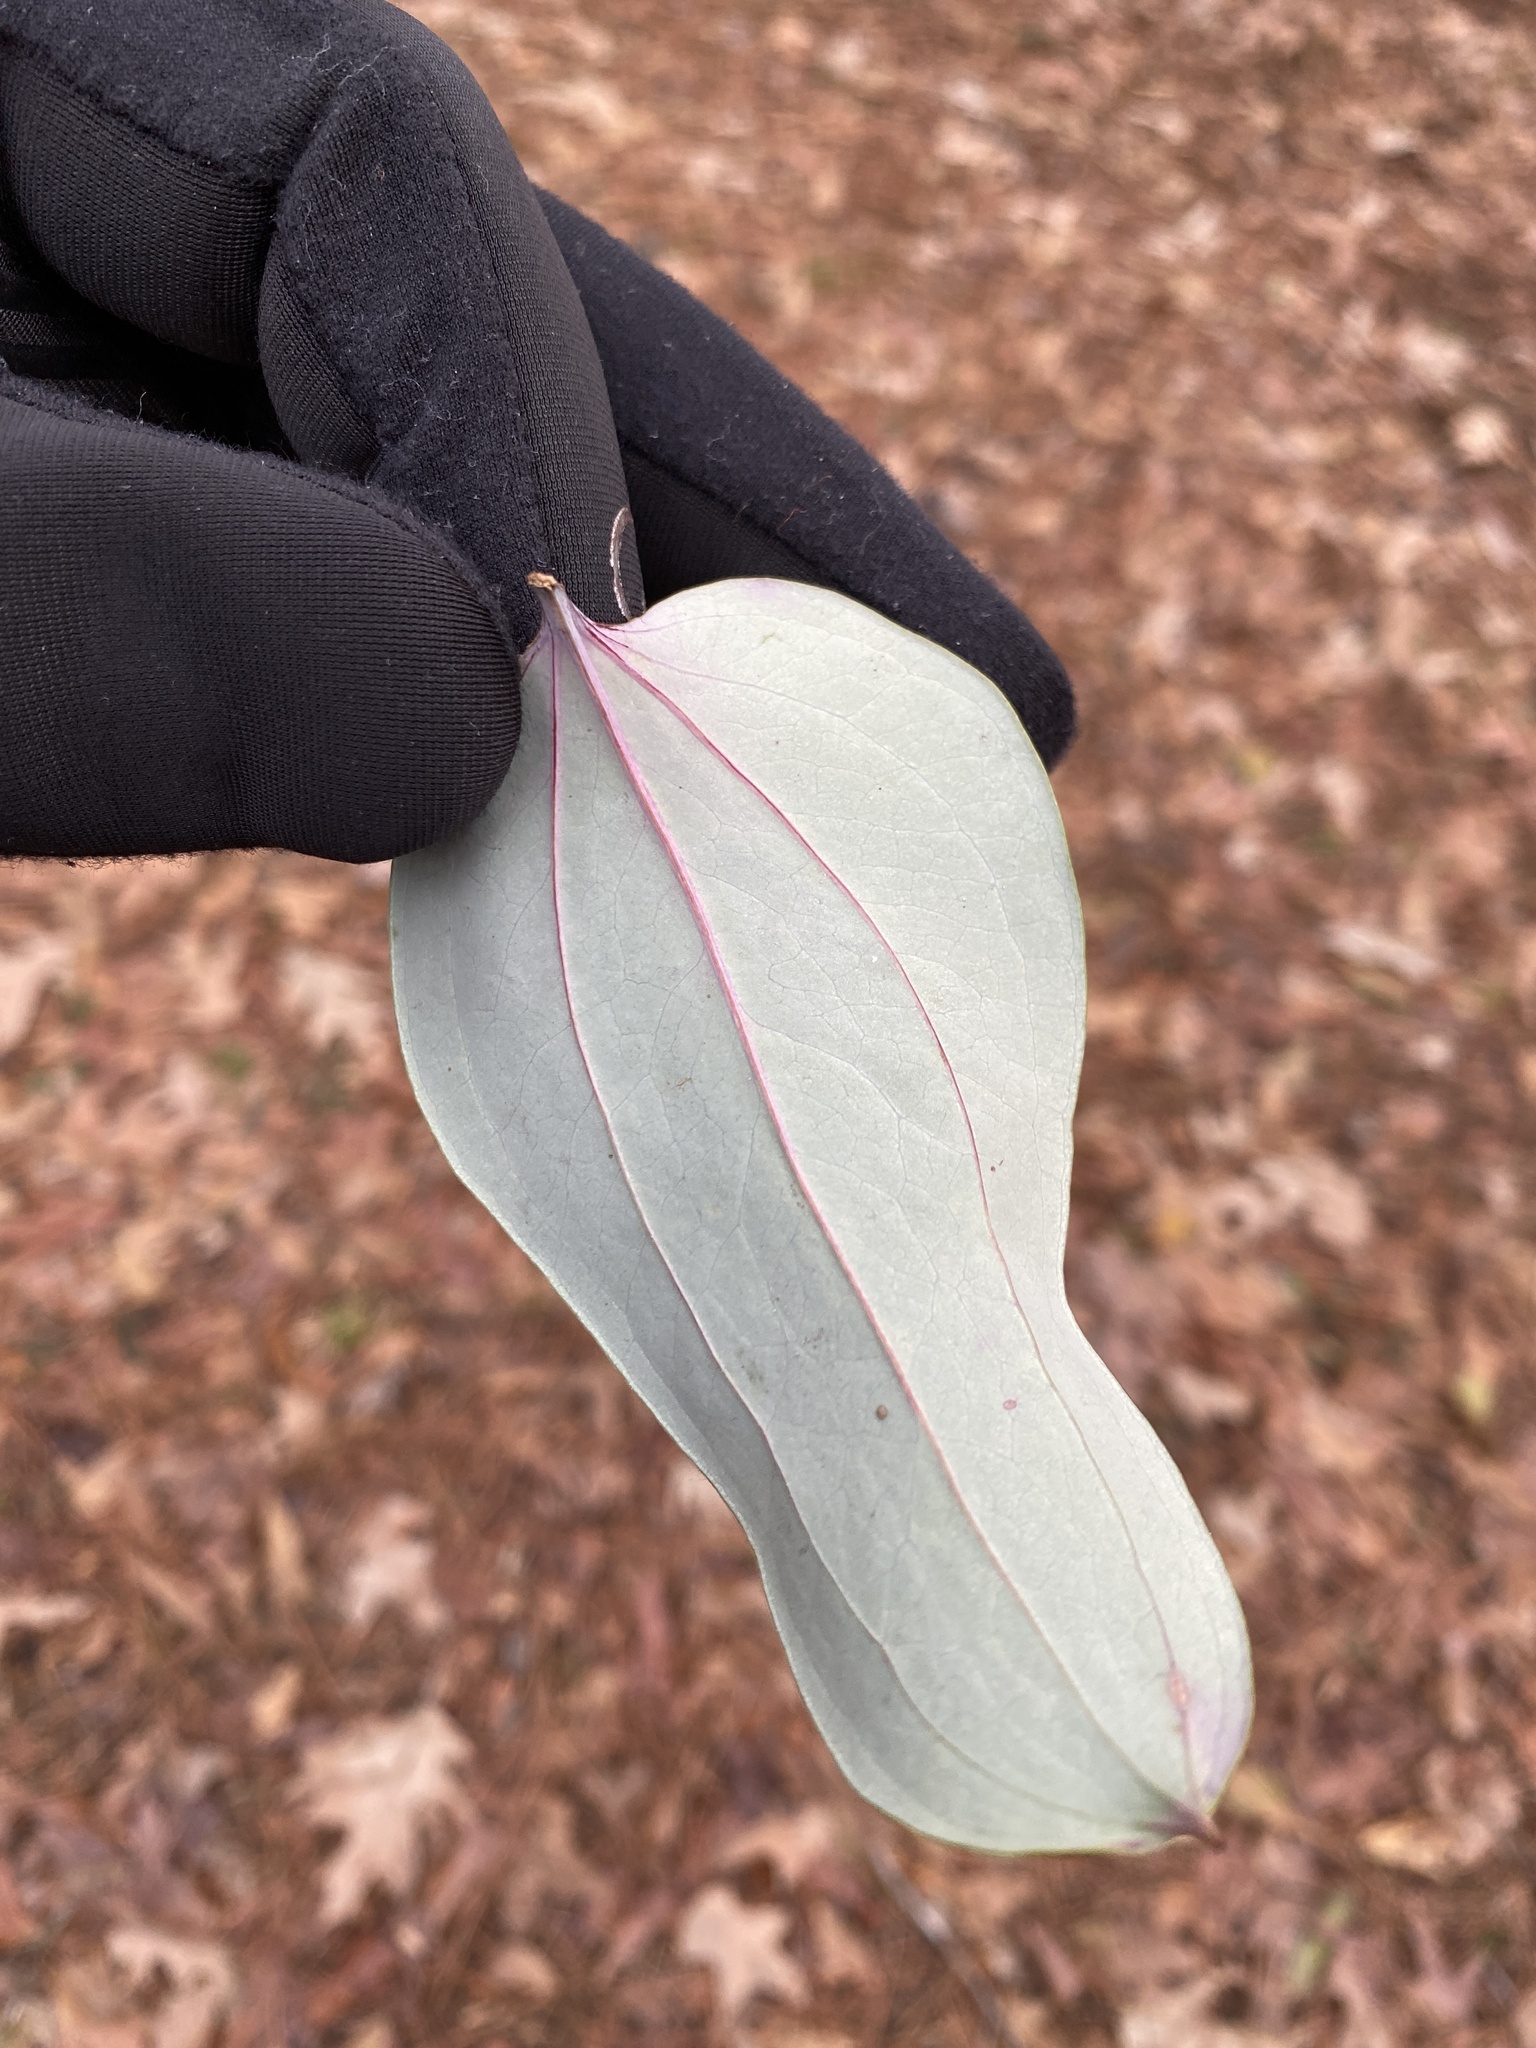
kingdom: Plantae
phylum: Tracheophyta
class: Liliopsida
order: Liliales
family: Smilacaceae
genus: Smilax
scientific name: Smilax glauca
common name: Cat greenbrier
